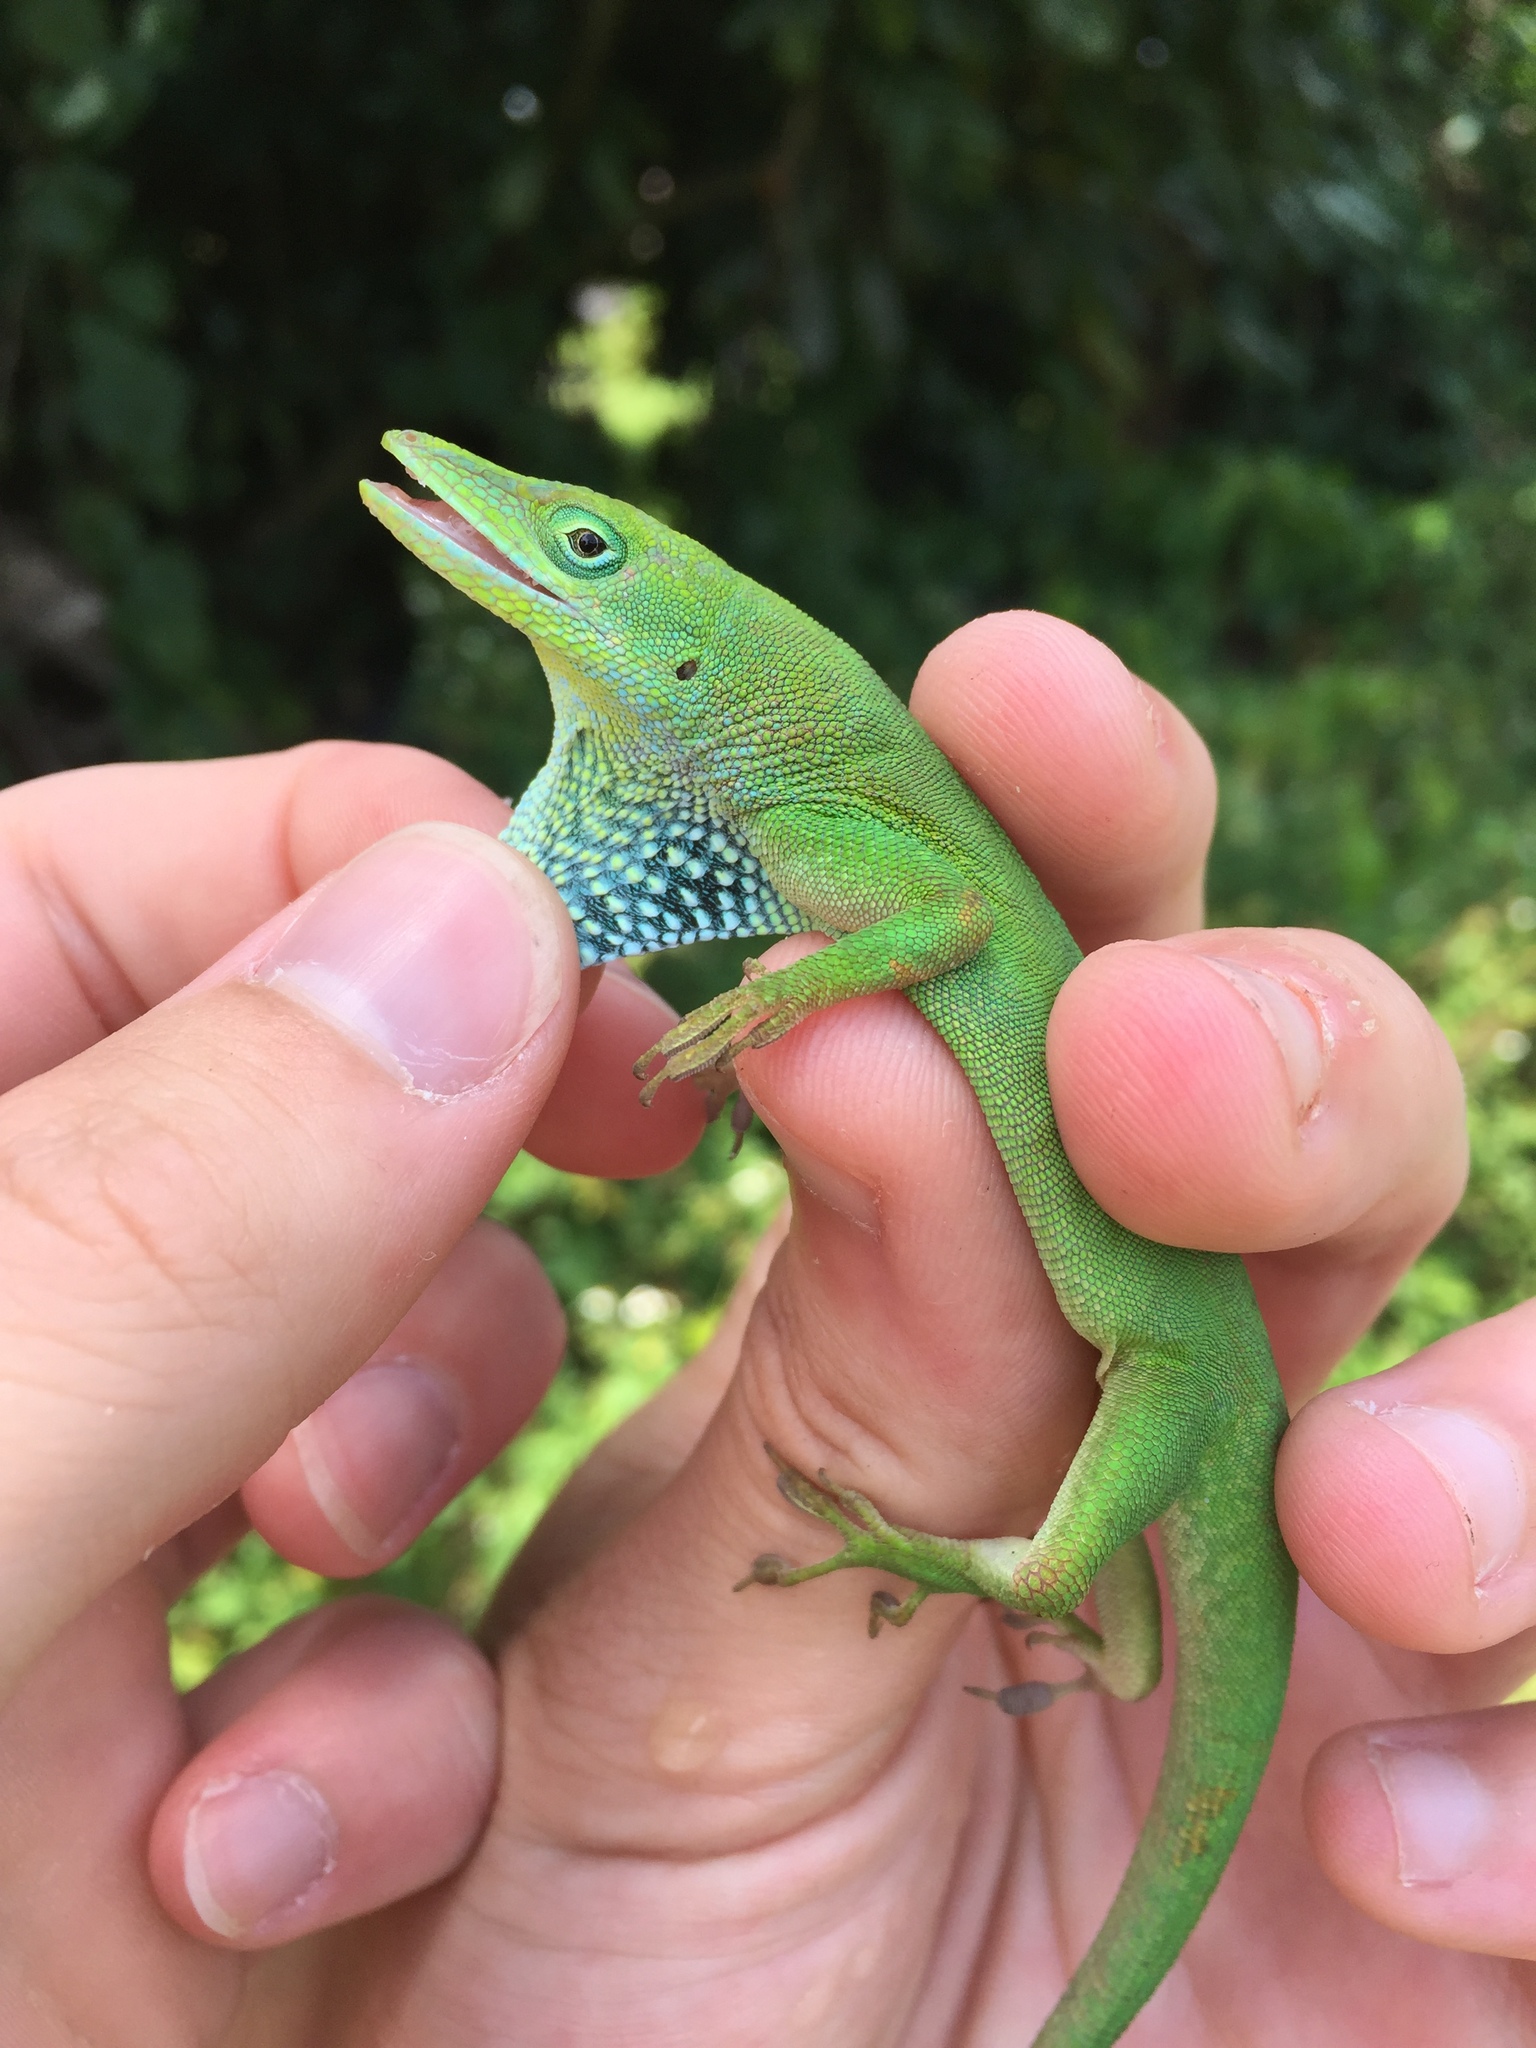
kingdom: Animalia
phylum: Chordata
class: Squamata
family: Dactyloidae
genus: Anolis
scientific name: Anolis chlorocyanus
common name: Hispaniolan green anole
